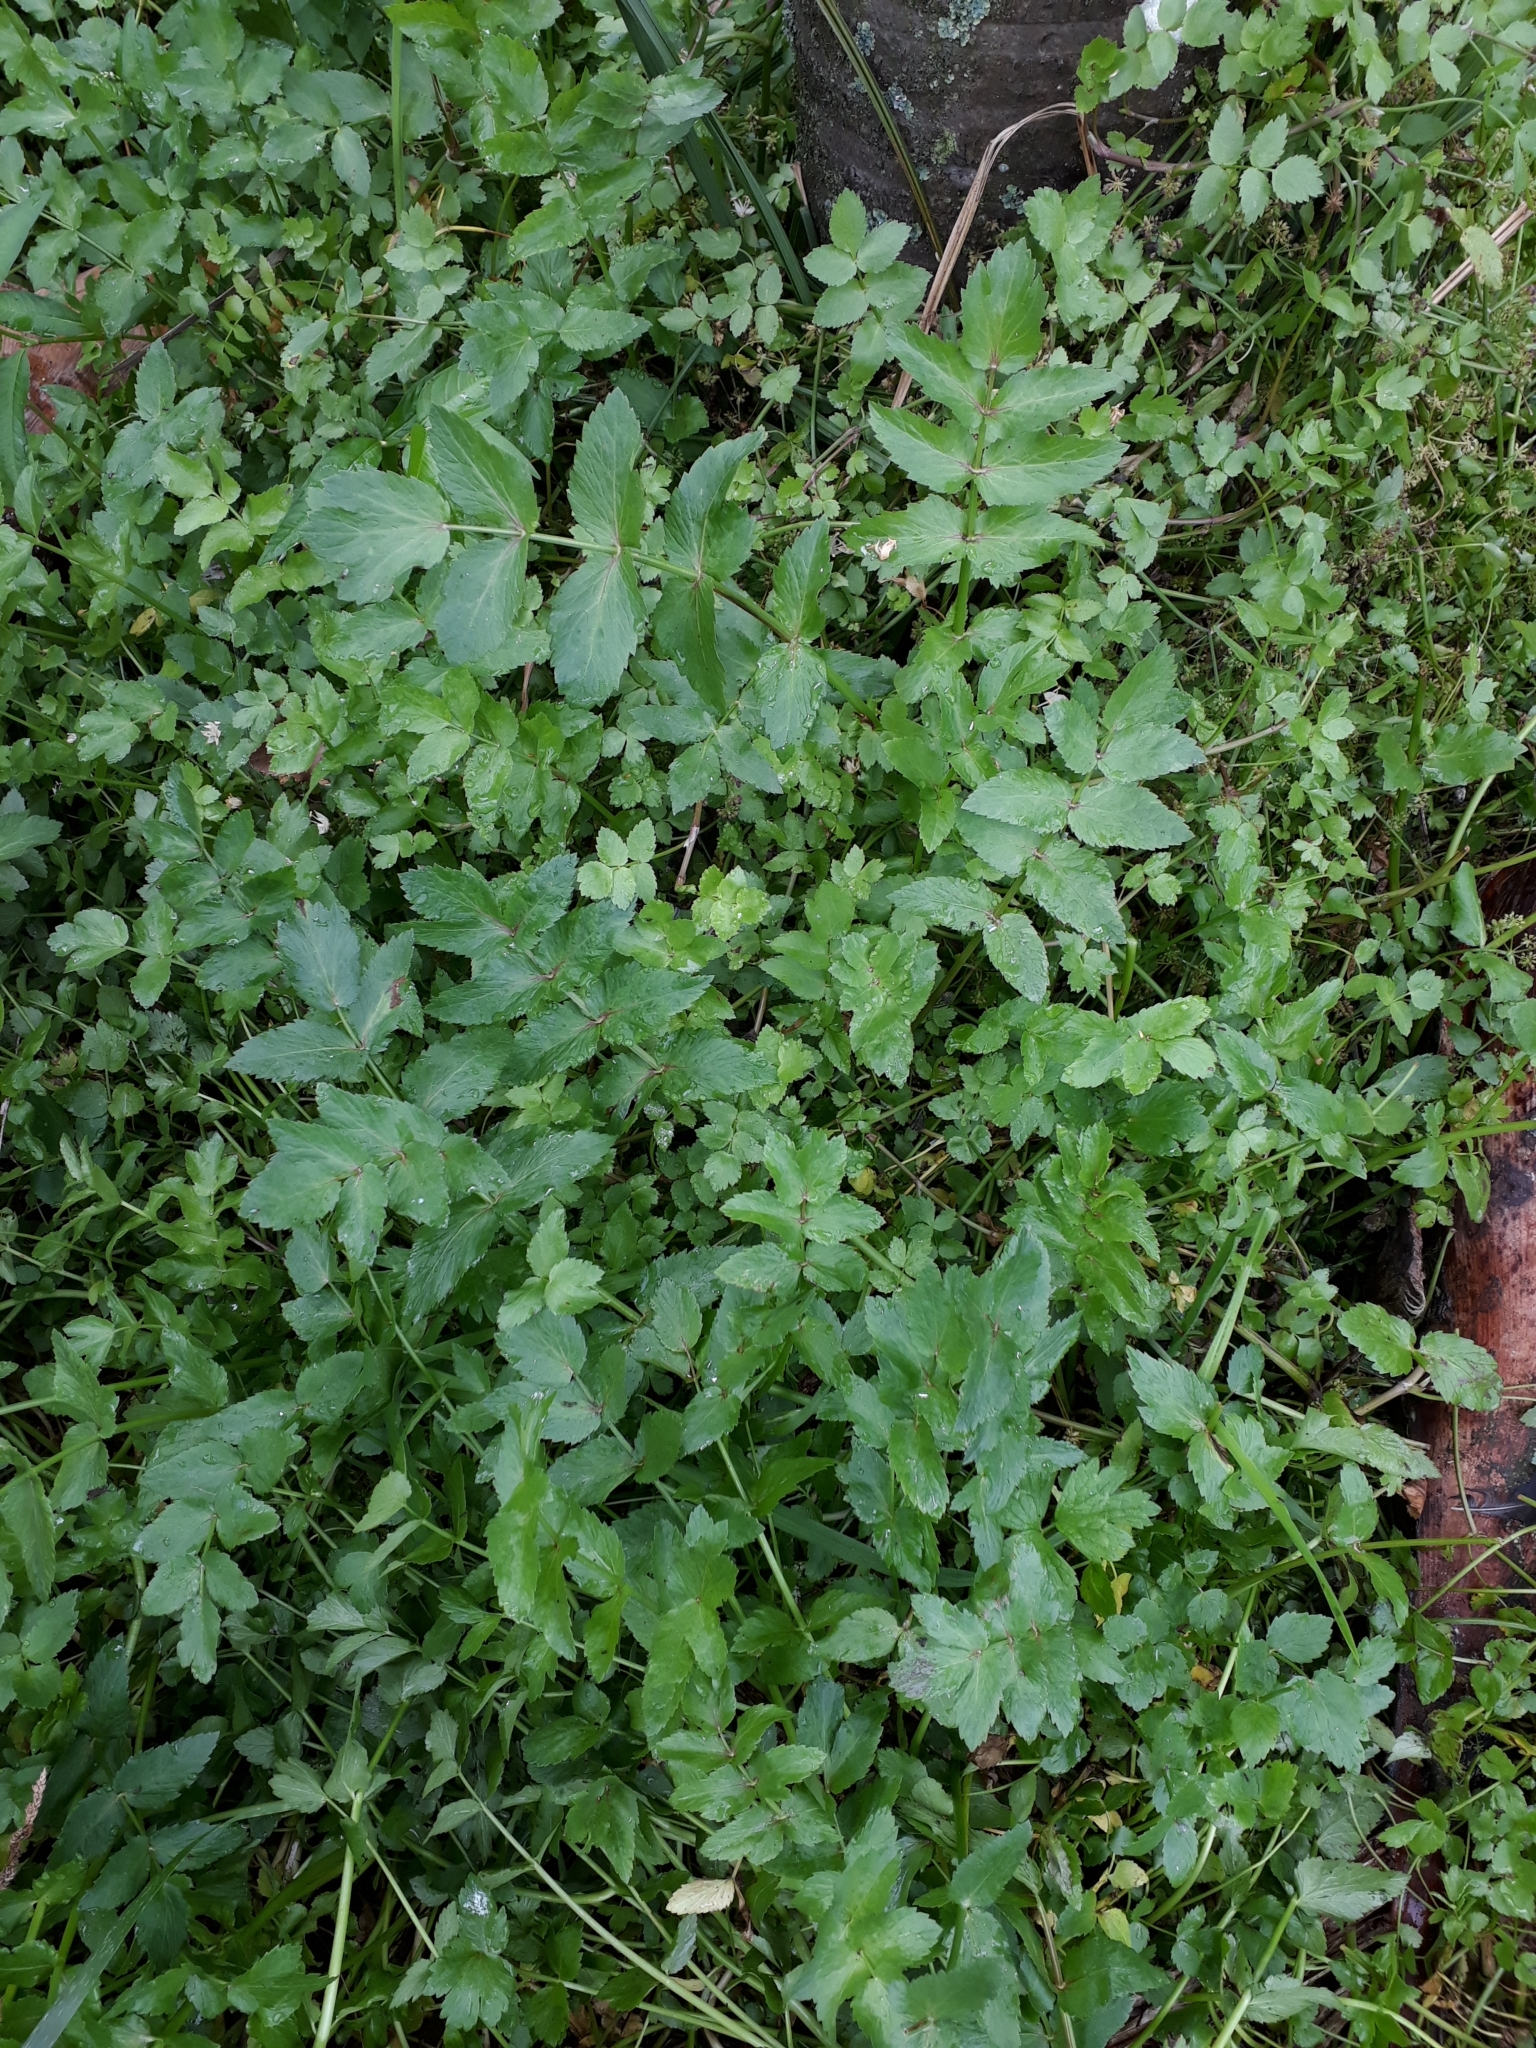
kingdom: Plantae
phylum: Tracheophyta
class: Magnoliopsida
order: Apiales
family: Apiaceae
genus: Helosciadium
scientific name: Helosciadium nodiflorum
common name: Fool's-watercress
